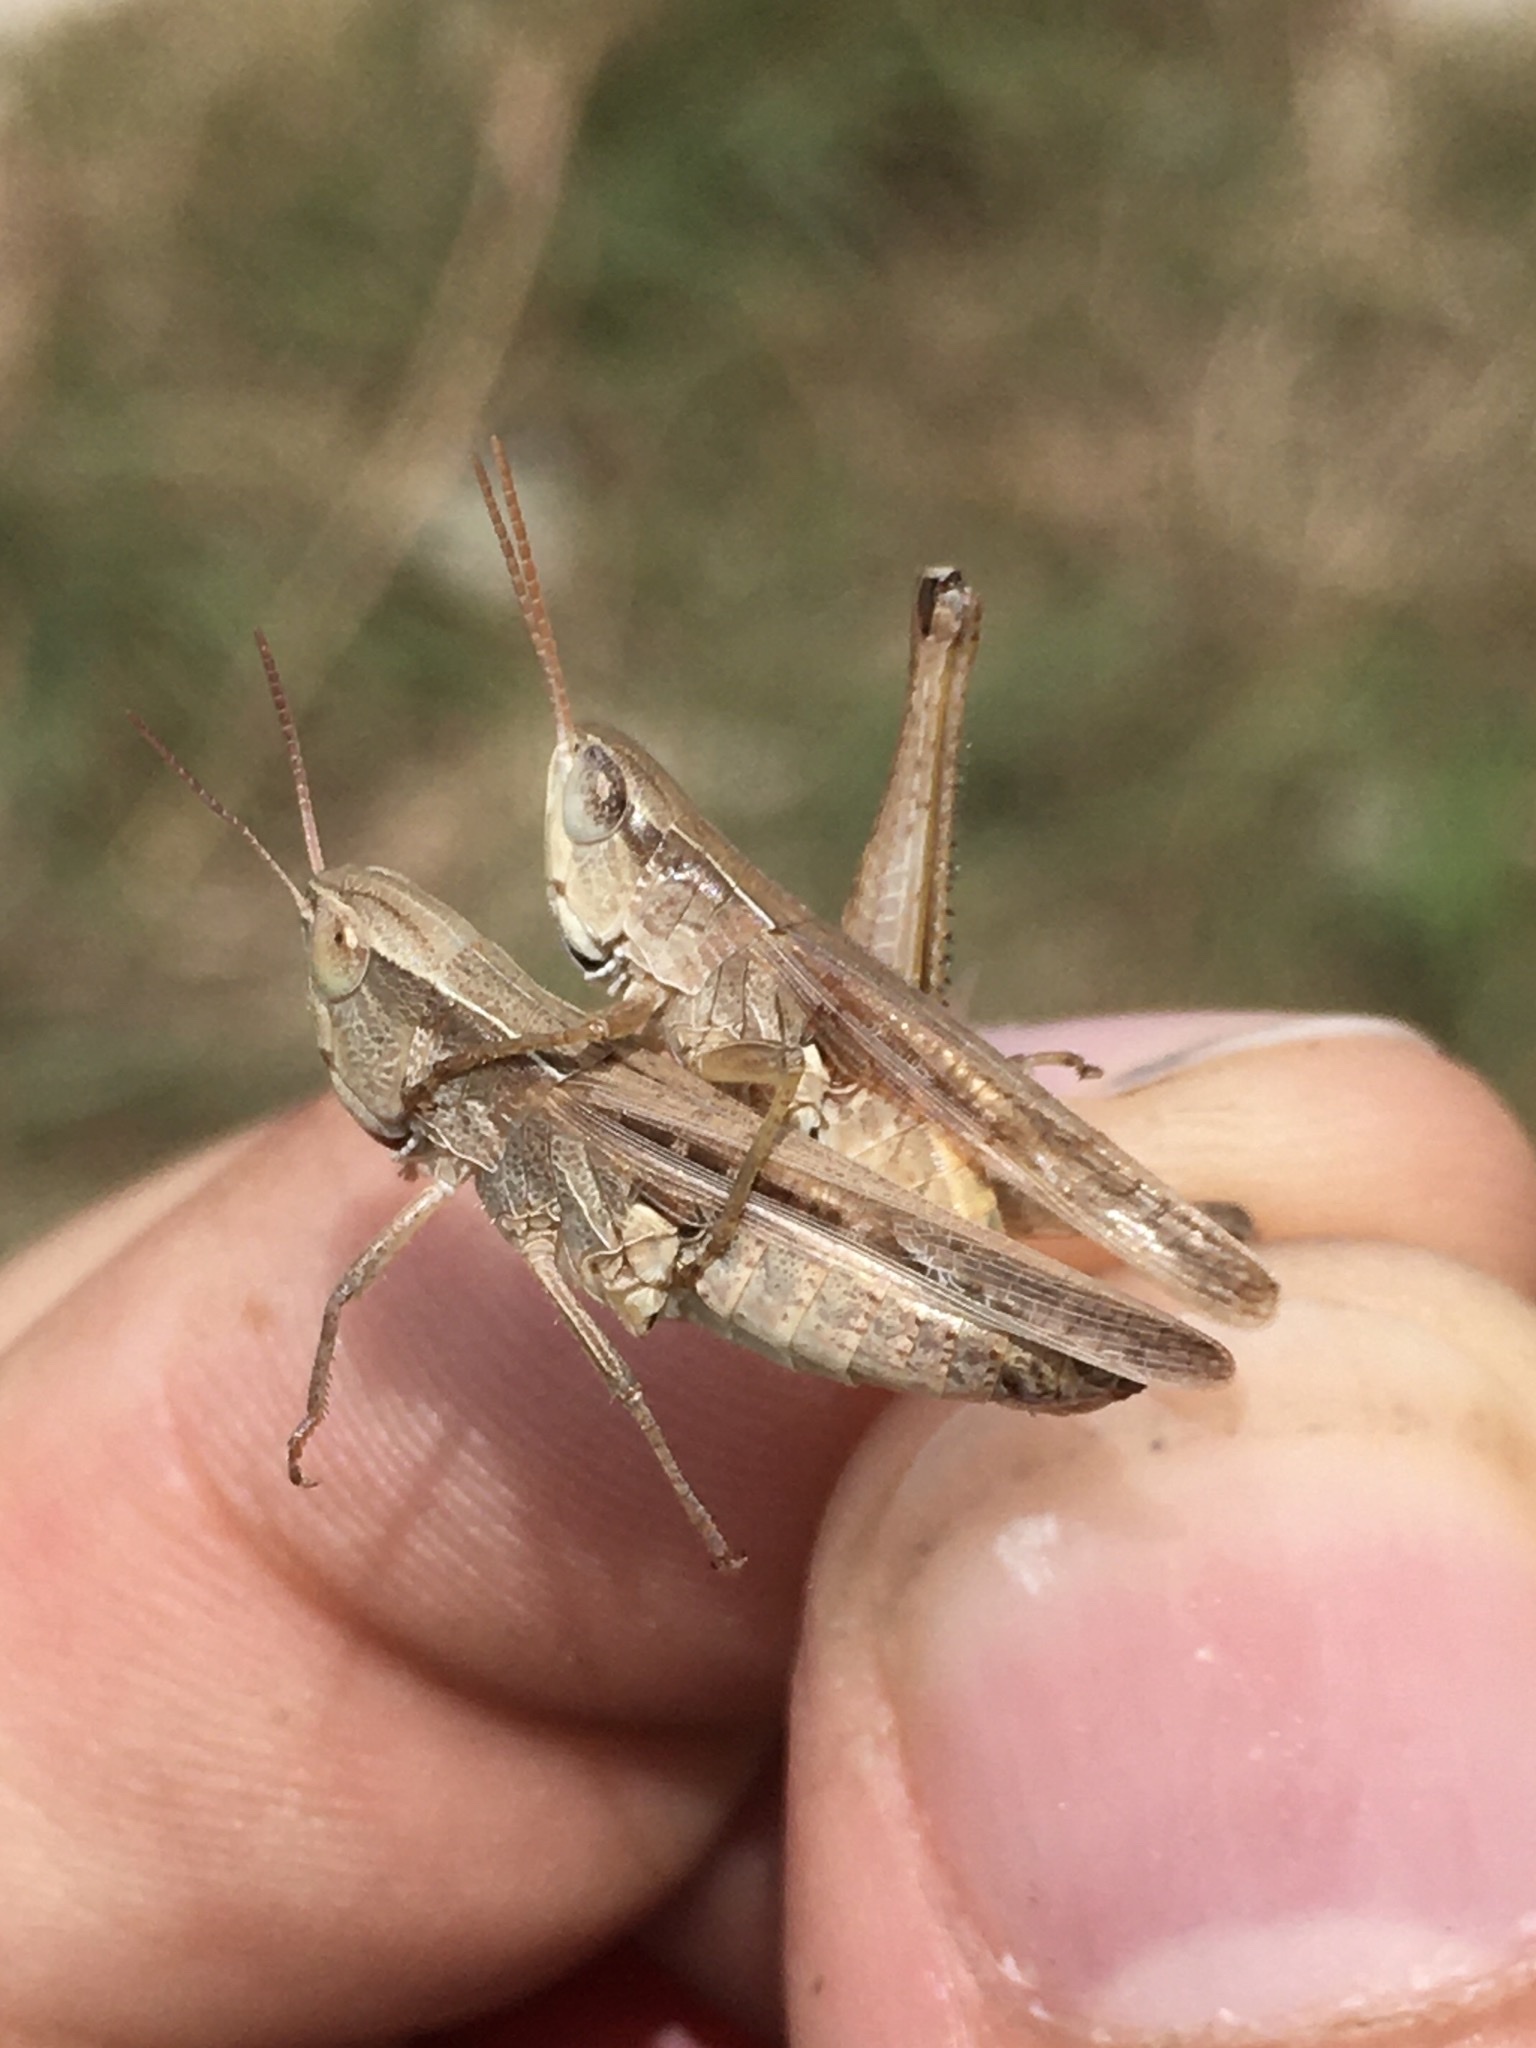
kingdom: Animalia
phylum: Arthropoda
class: Insecta
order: Orthoptera
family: Acrididae
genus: Orphulella
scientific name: Orphulella speciosa
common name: Pasture grasshopper
